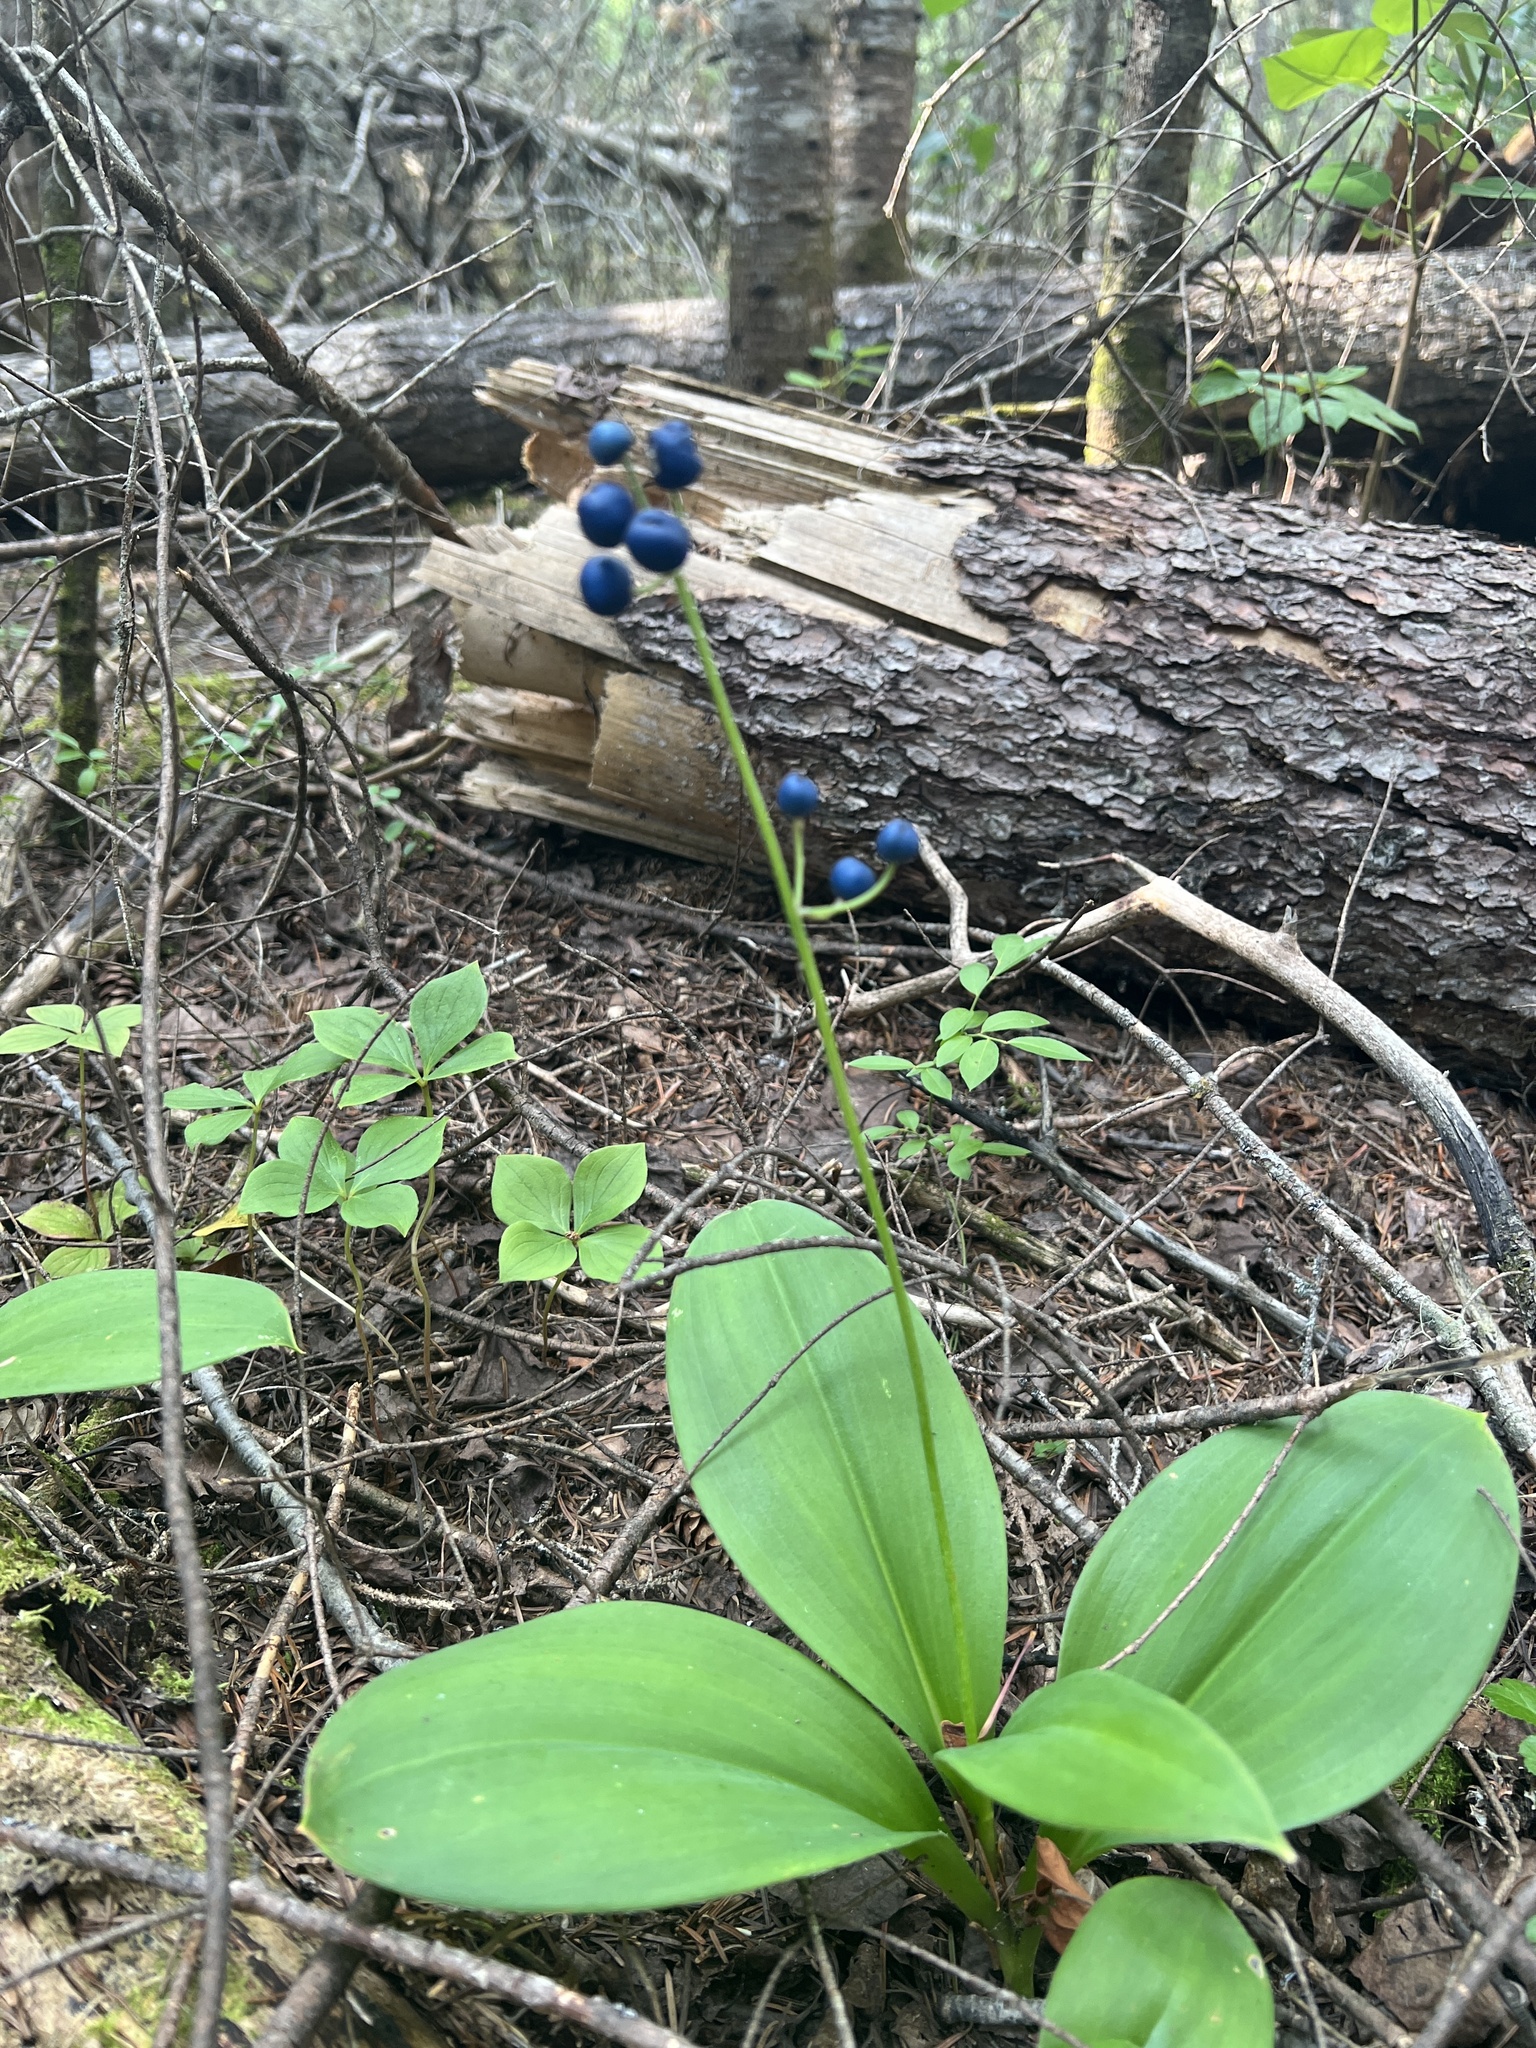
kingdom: Plantae
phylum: Tracheophyta
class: Liliopsida
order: Liliales
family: Liliaceae
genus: Clintonia
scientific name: Clintonia borealis
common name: Yellow clintonia
